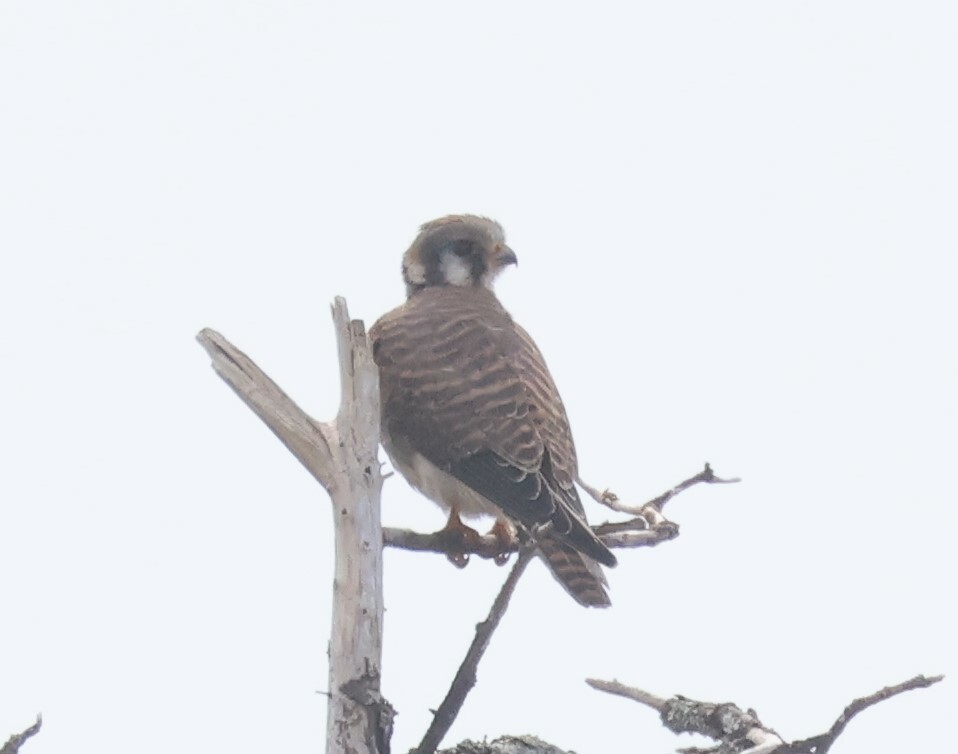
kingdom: Animalia
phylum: Chordata
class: Aves
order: Falconiformes
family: Falconidae
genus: Falco
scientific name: Falco sparverius
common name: American kestrel
